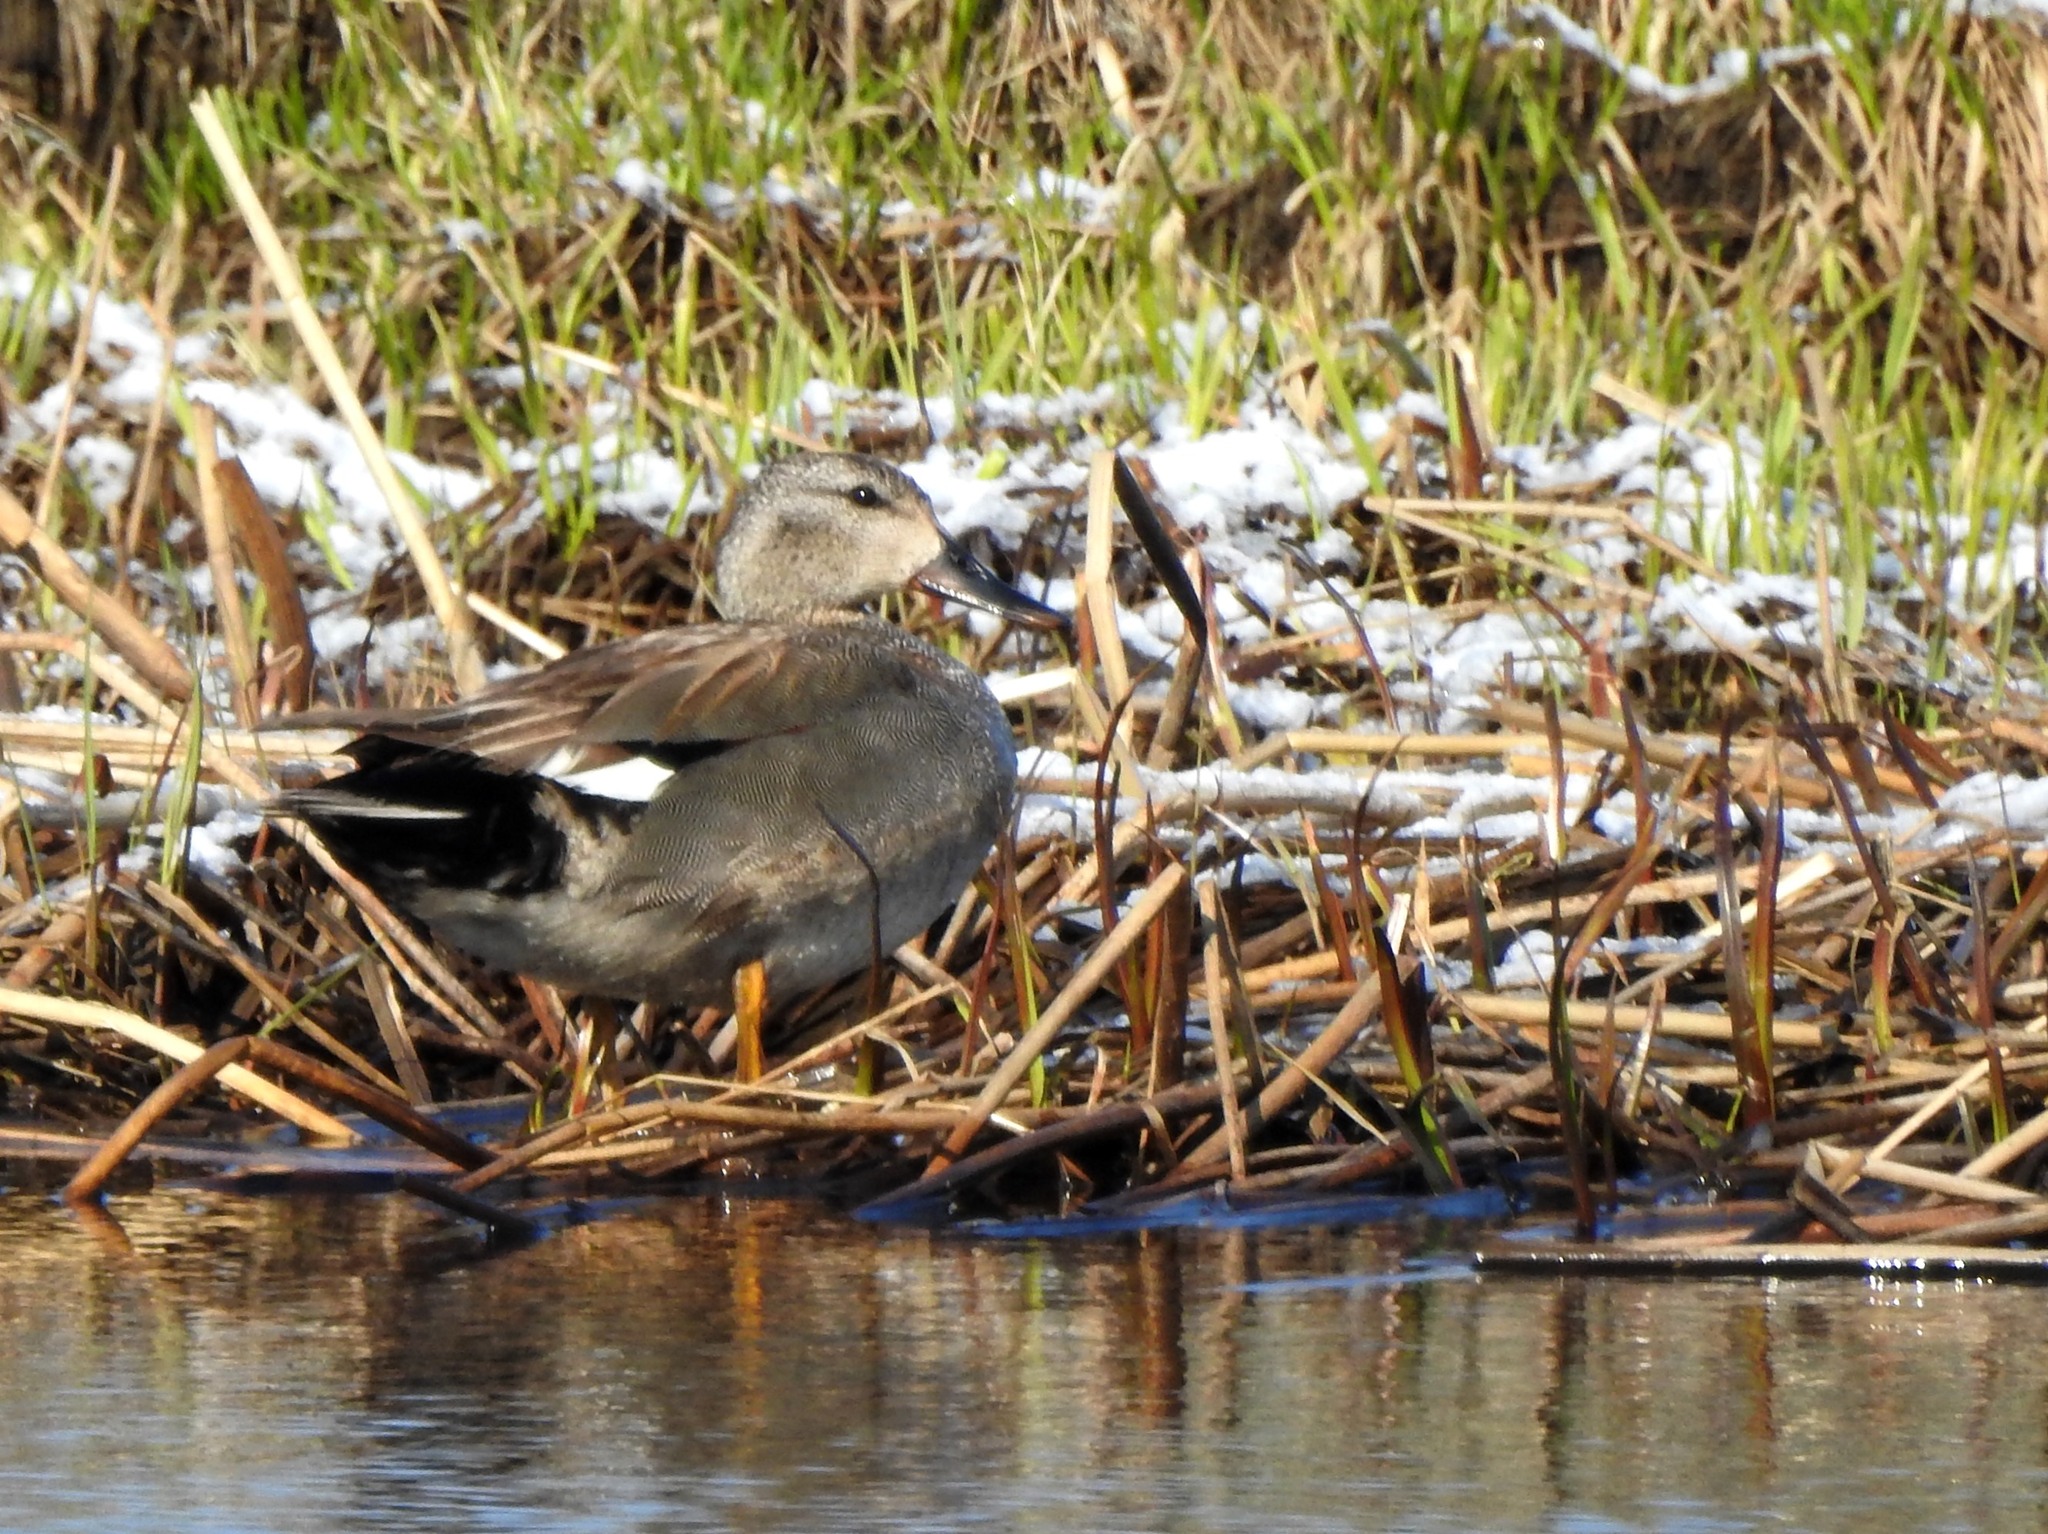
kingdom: Animalia
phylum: Chordata
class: Aves
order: Anseriformes
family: Anatidae
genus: Mareca
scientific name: Mareca strepera
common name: Gadwall
